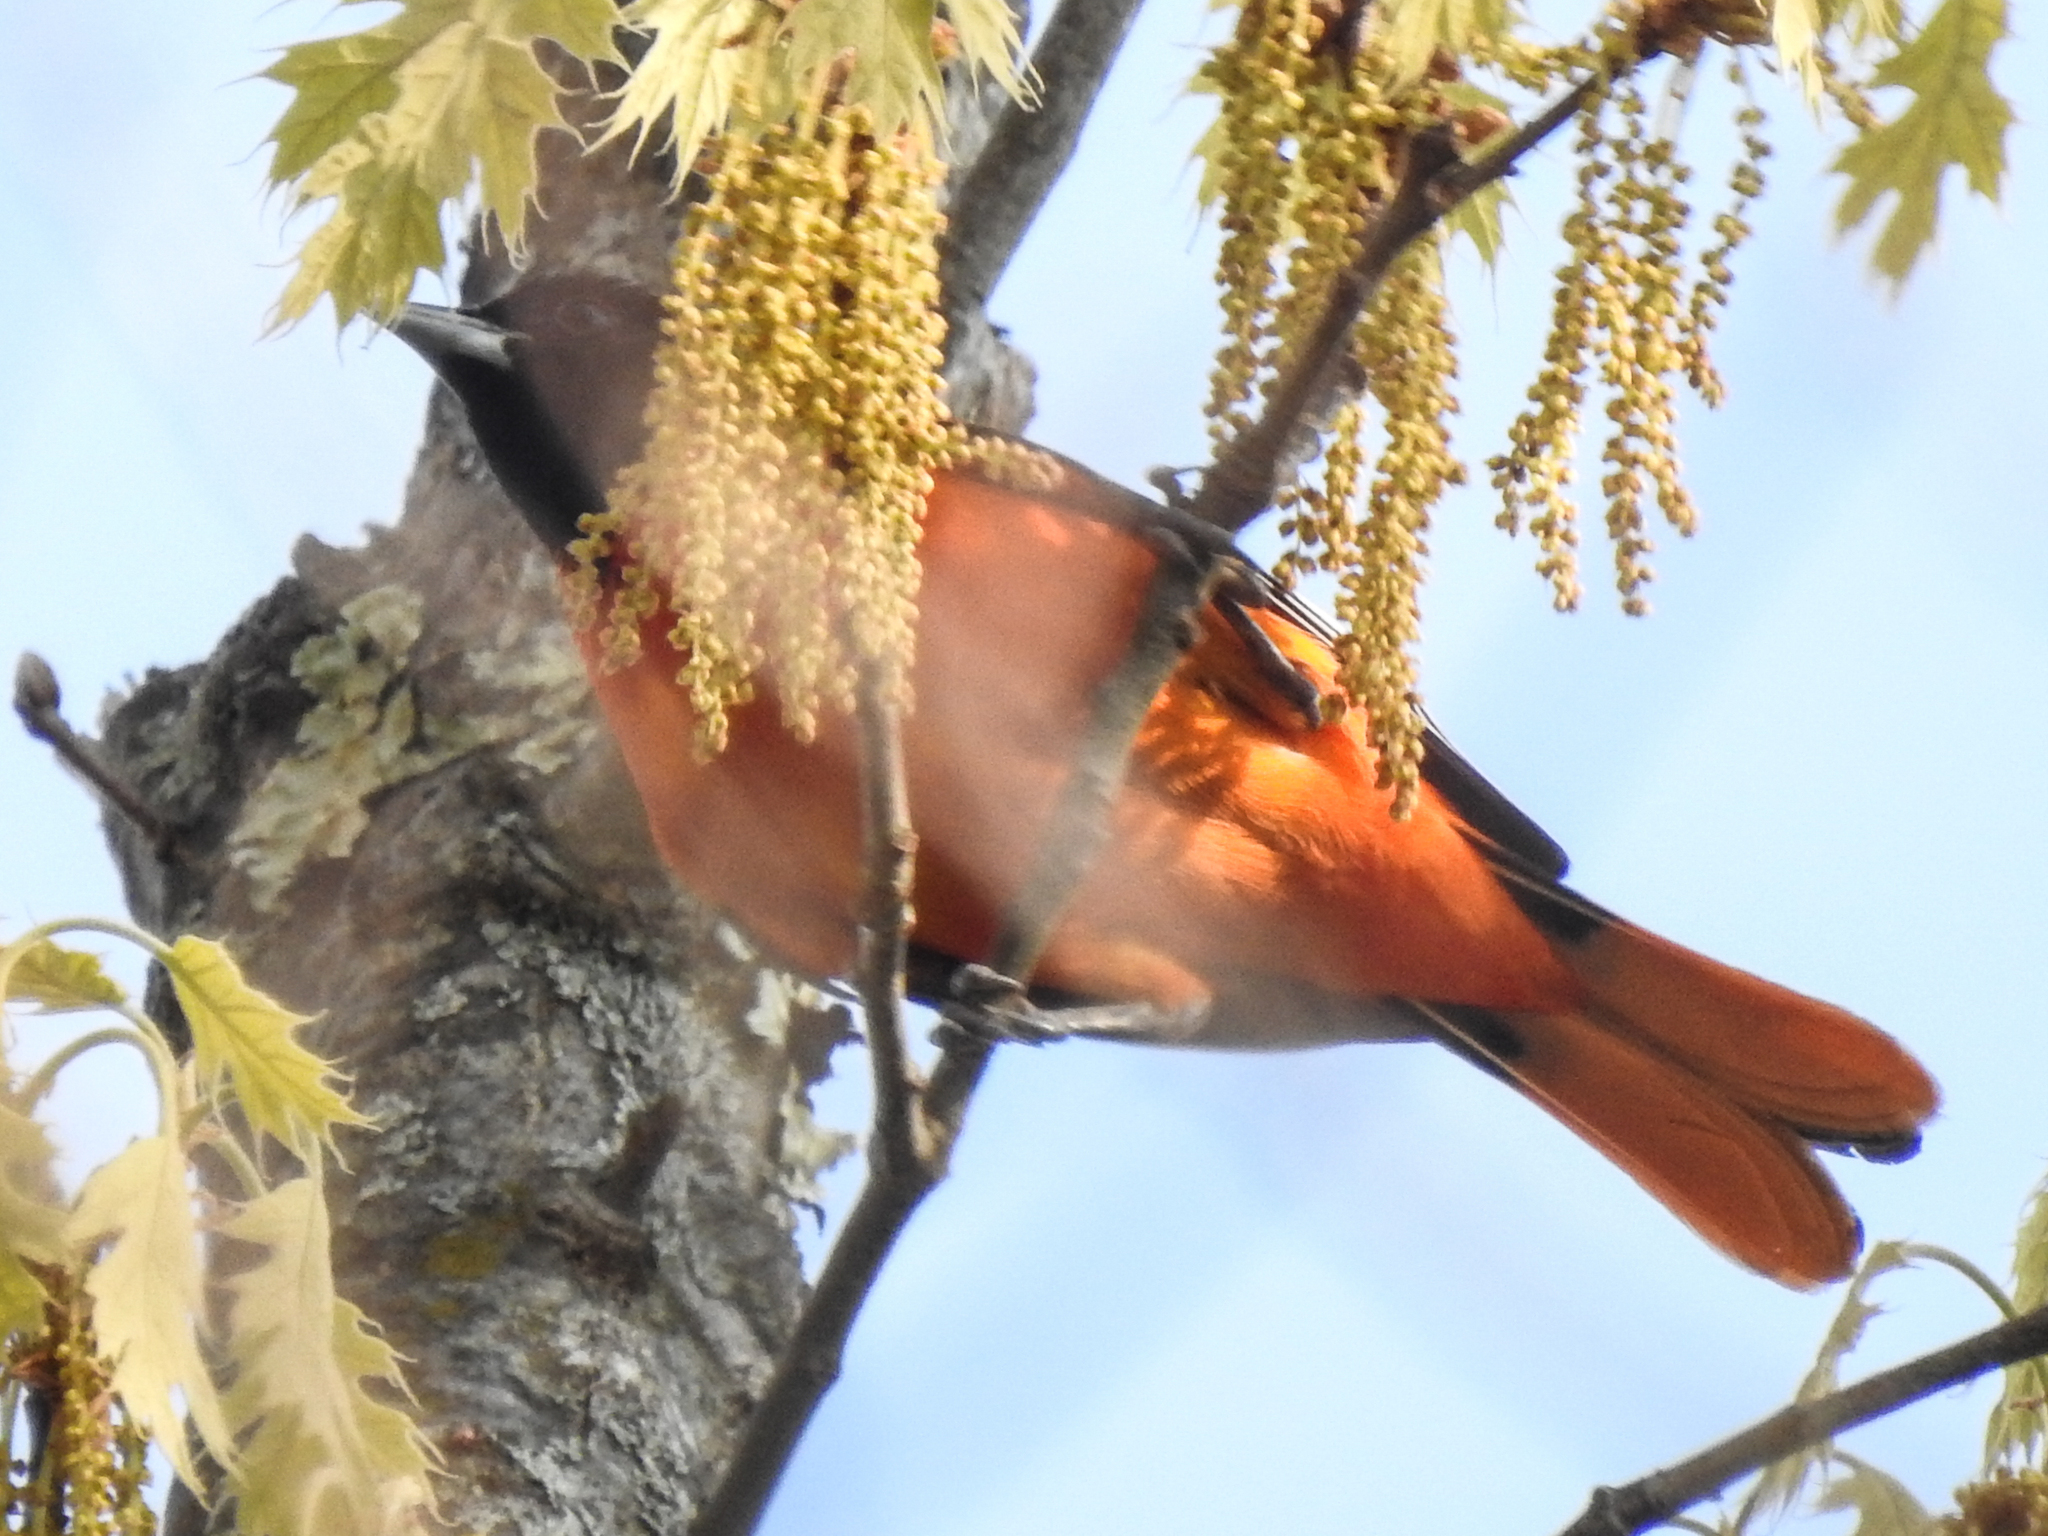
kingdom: Animalia
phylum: Chordata
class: Aves
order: Passeriformes
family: Icteridae
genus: Icterus
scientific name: Icterus galbula
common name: Baltimore oriole
